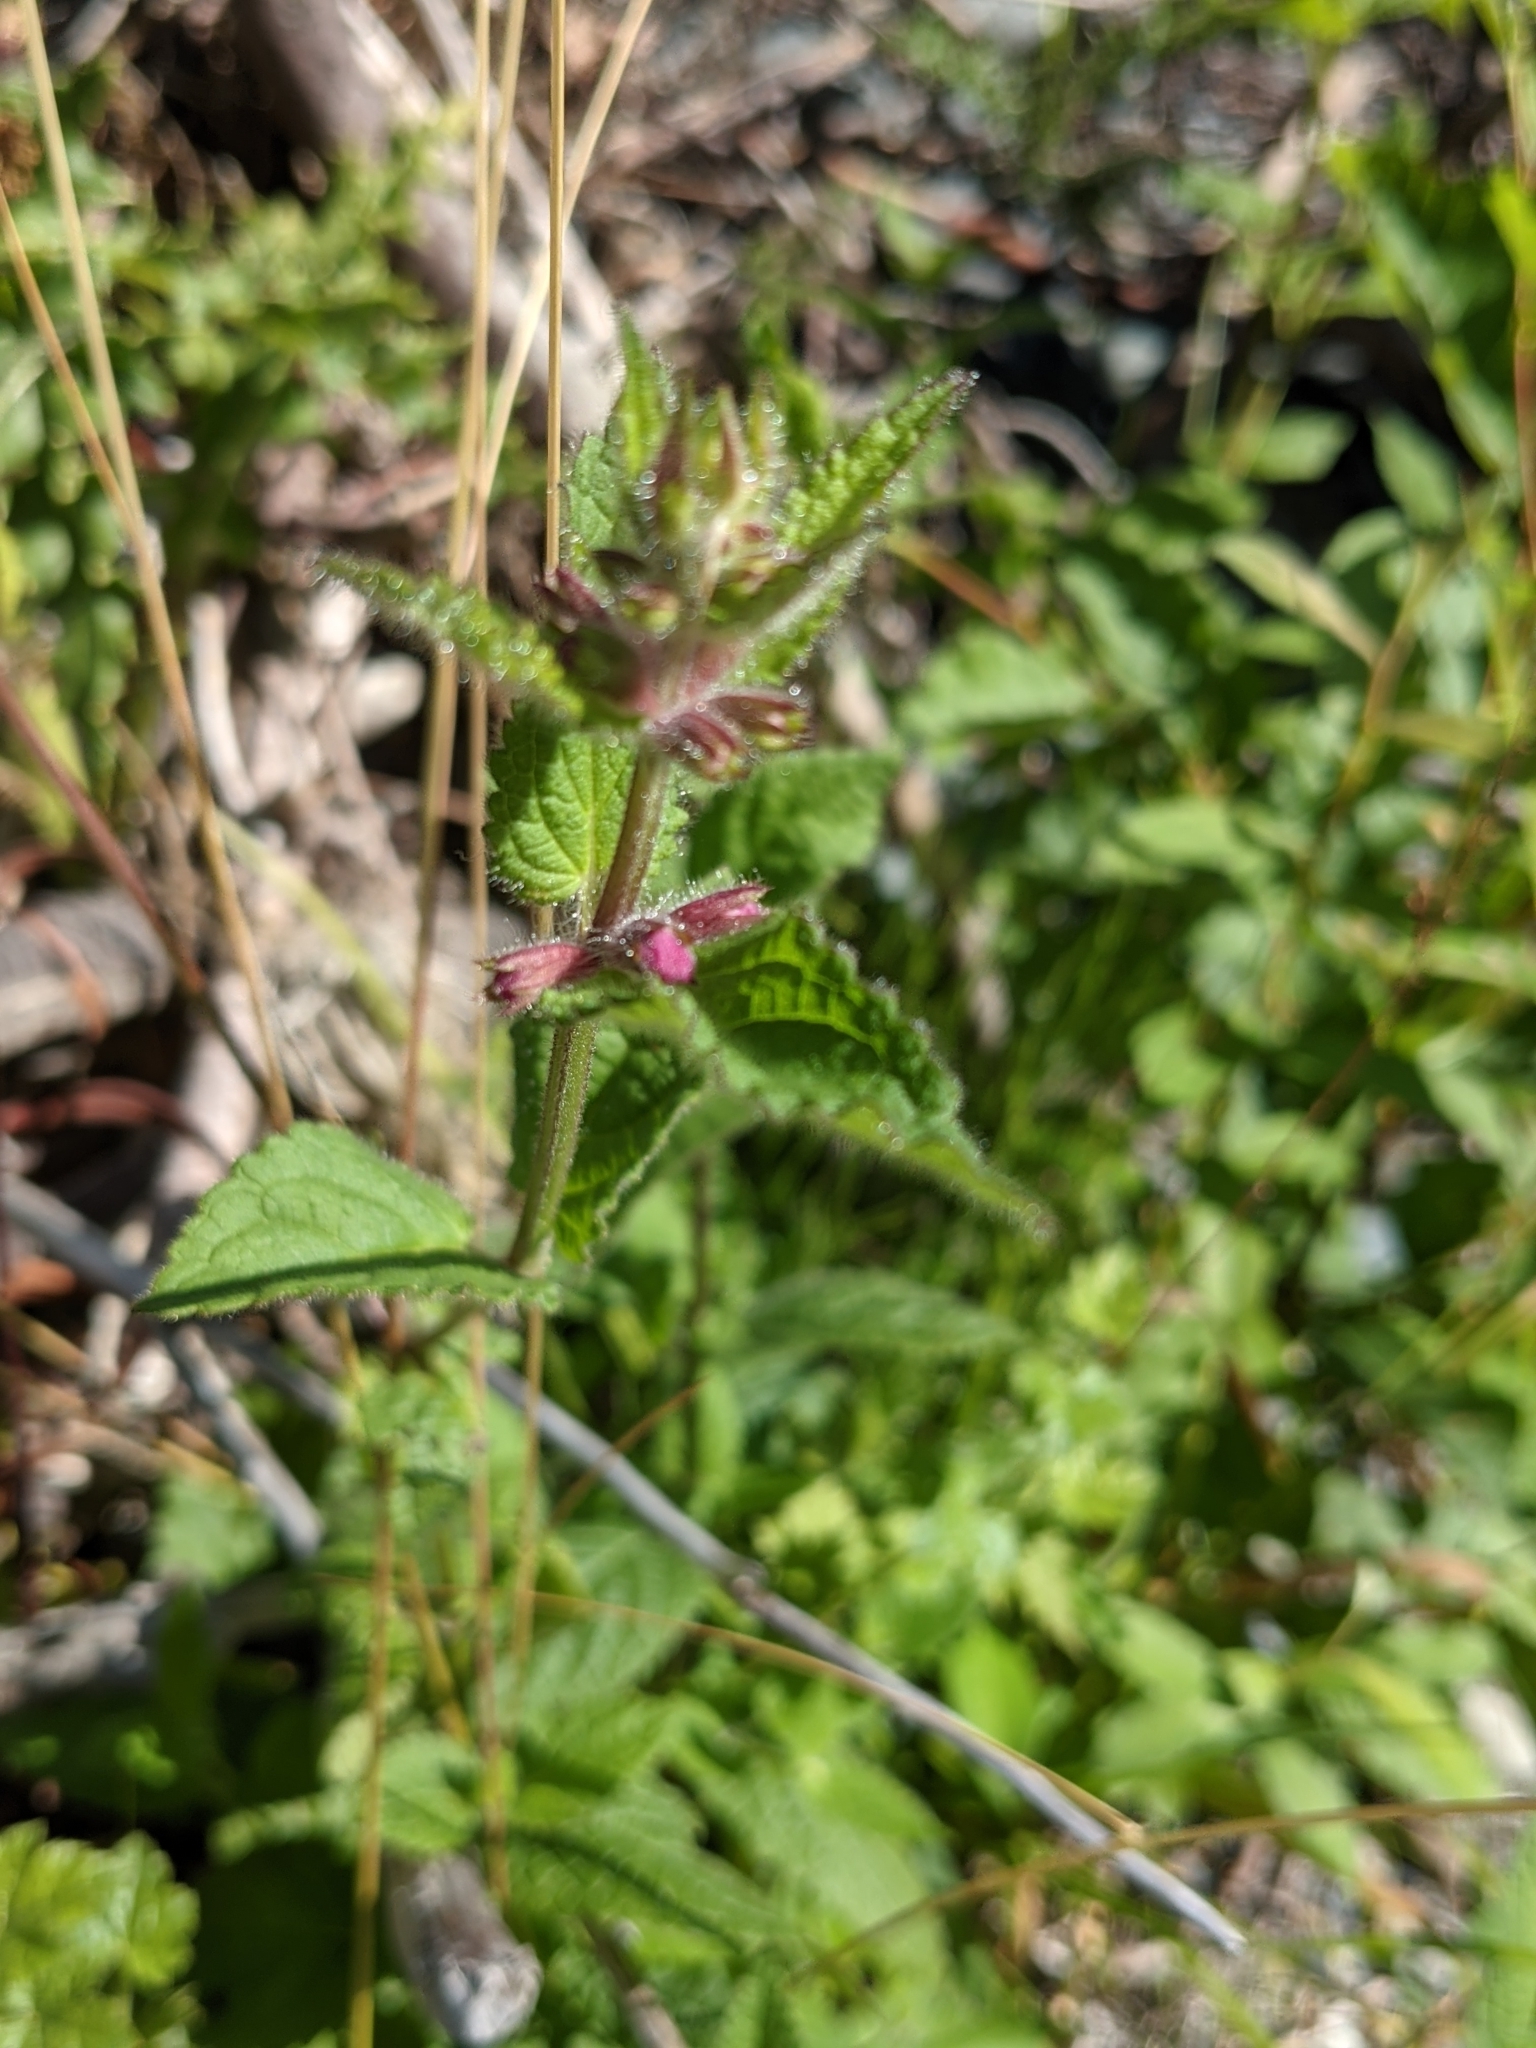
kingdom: Plantae
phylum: Tracheophyta
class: Magnoliopsida
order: Lamiales
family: Lamiaceae
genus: Stachys
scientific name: Stachys chamissonis
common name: Coastal hedge-nettle
